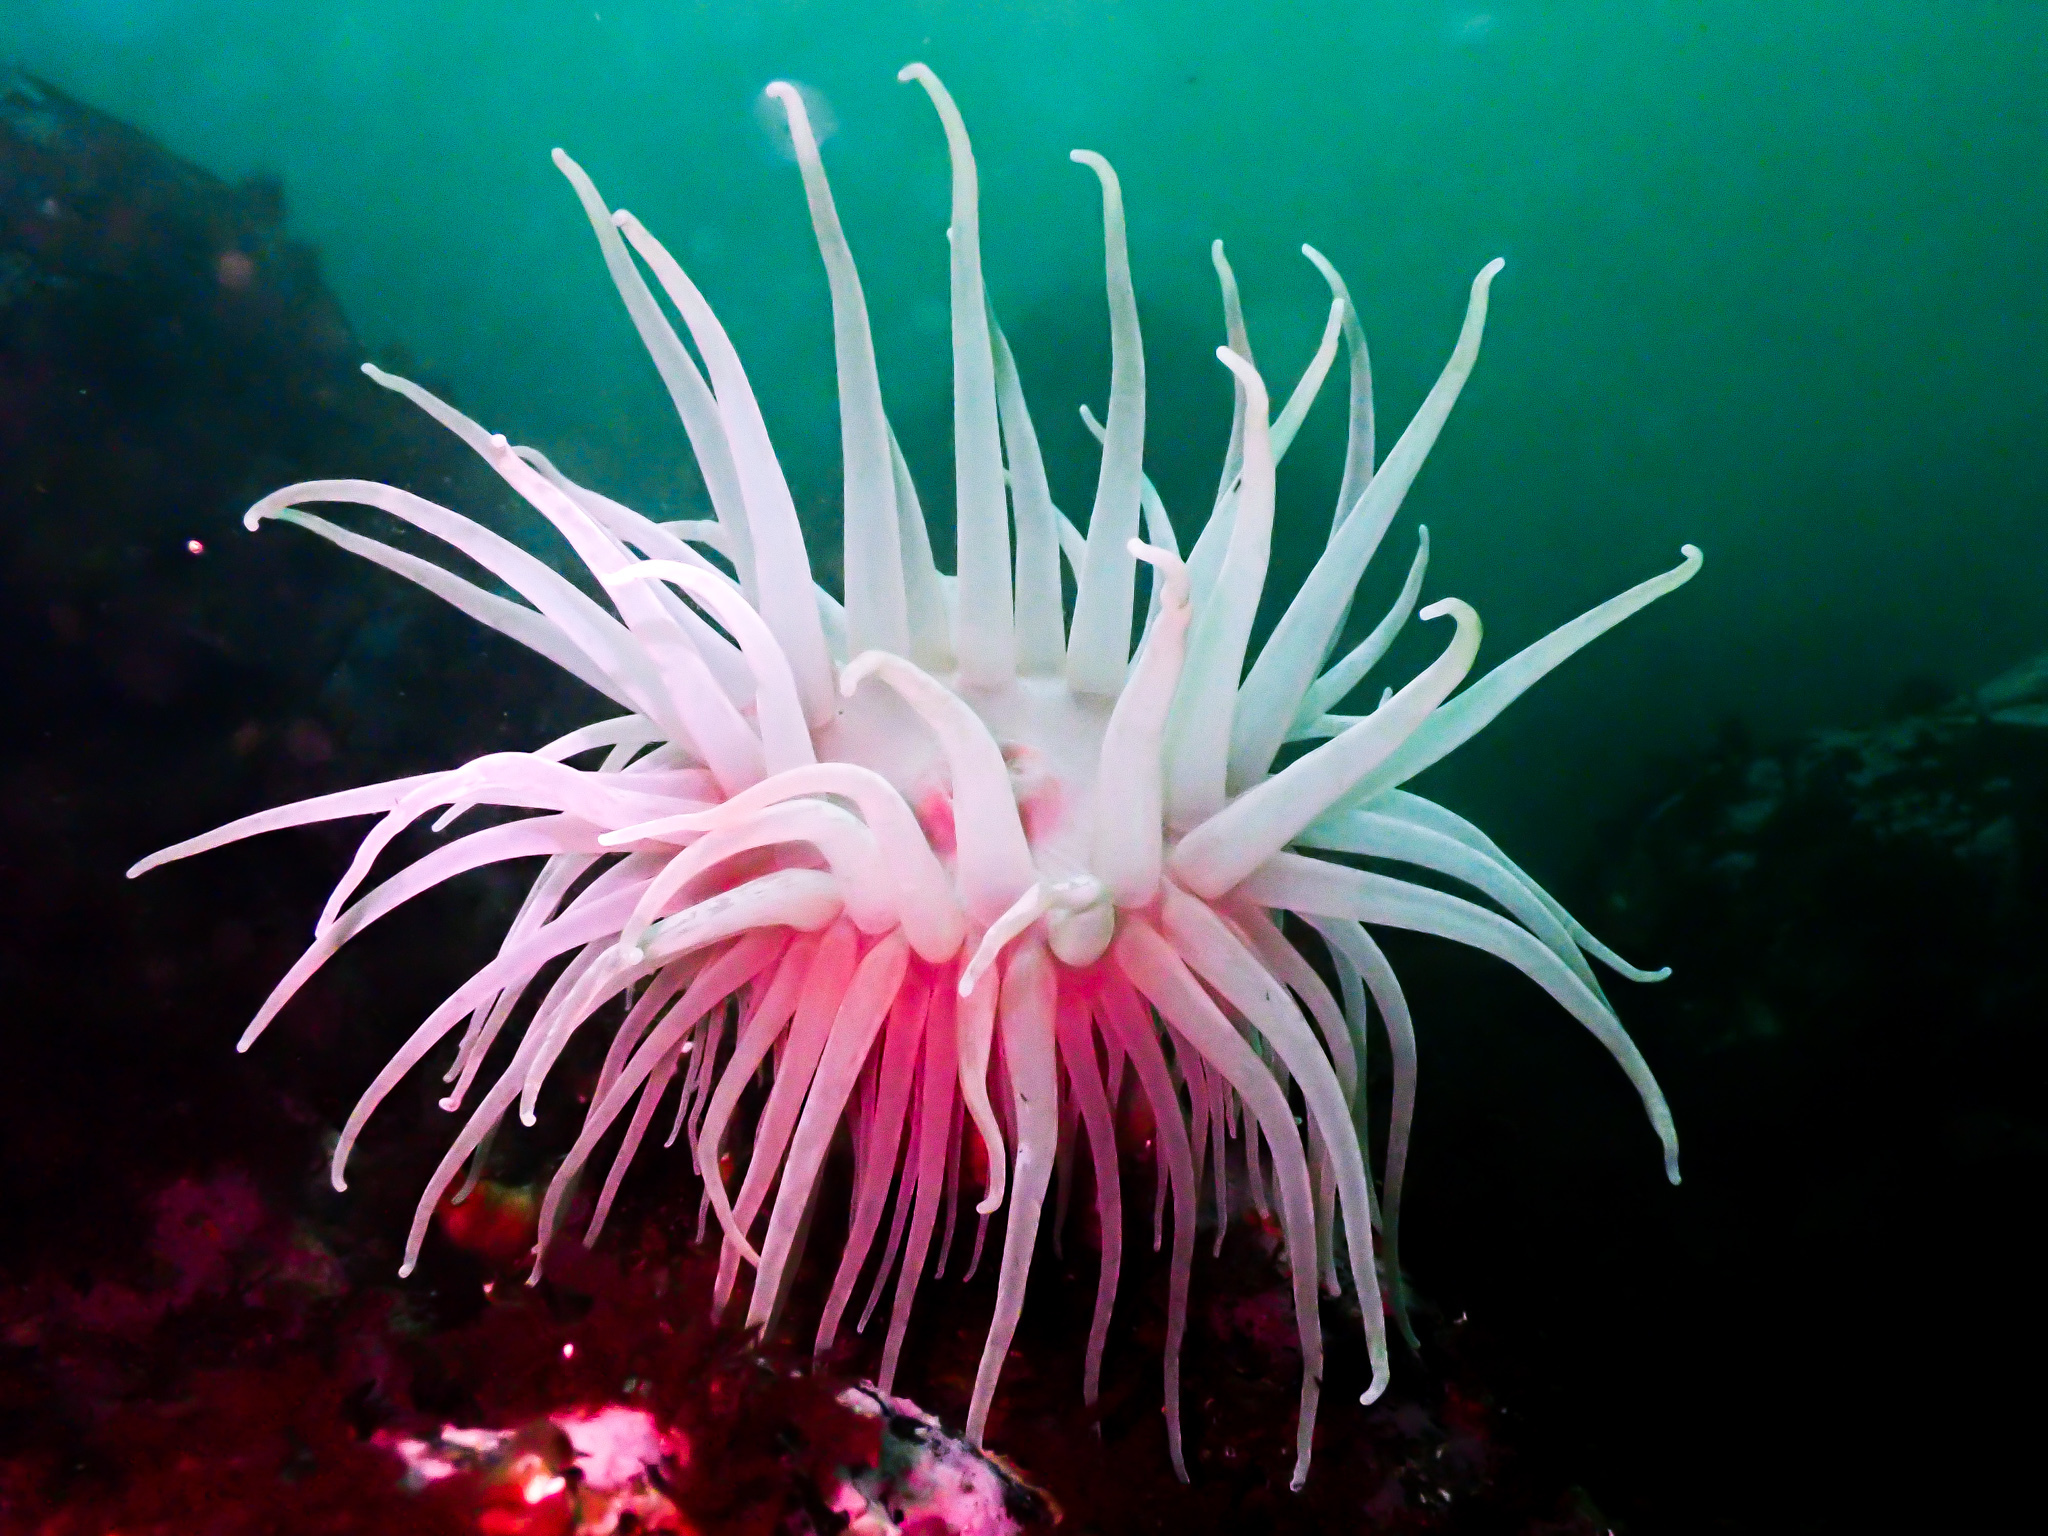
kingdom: Animalia
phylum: Cnidaria
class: Anthozoa
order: Actiniaria
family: Actiniidae
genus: Bolocera
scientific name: Bolocera tuediae
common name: Deeplet sea anemone
